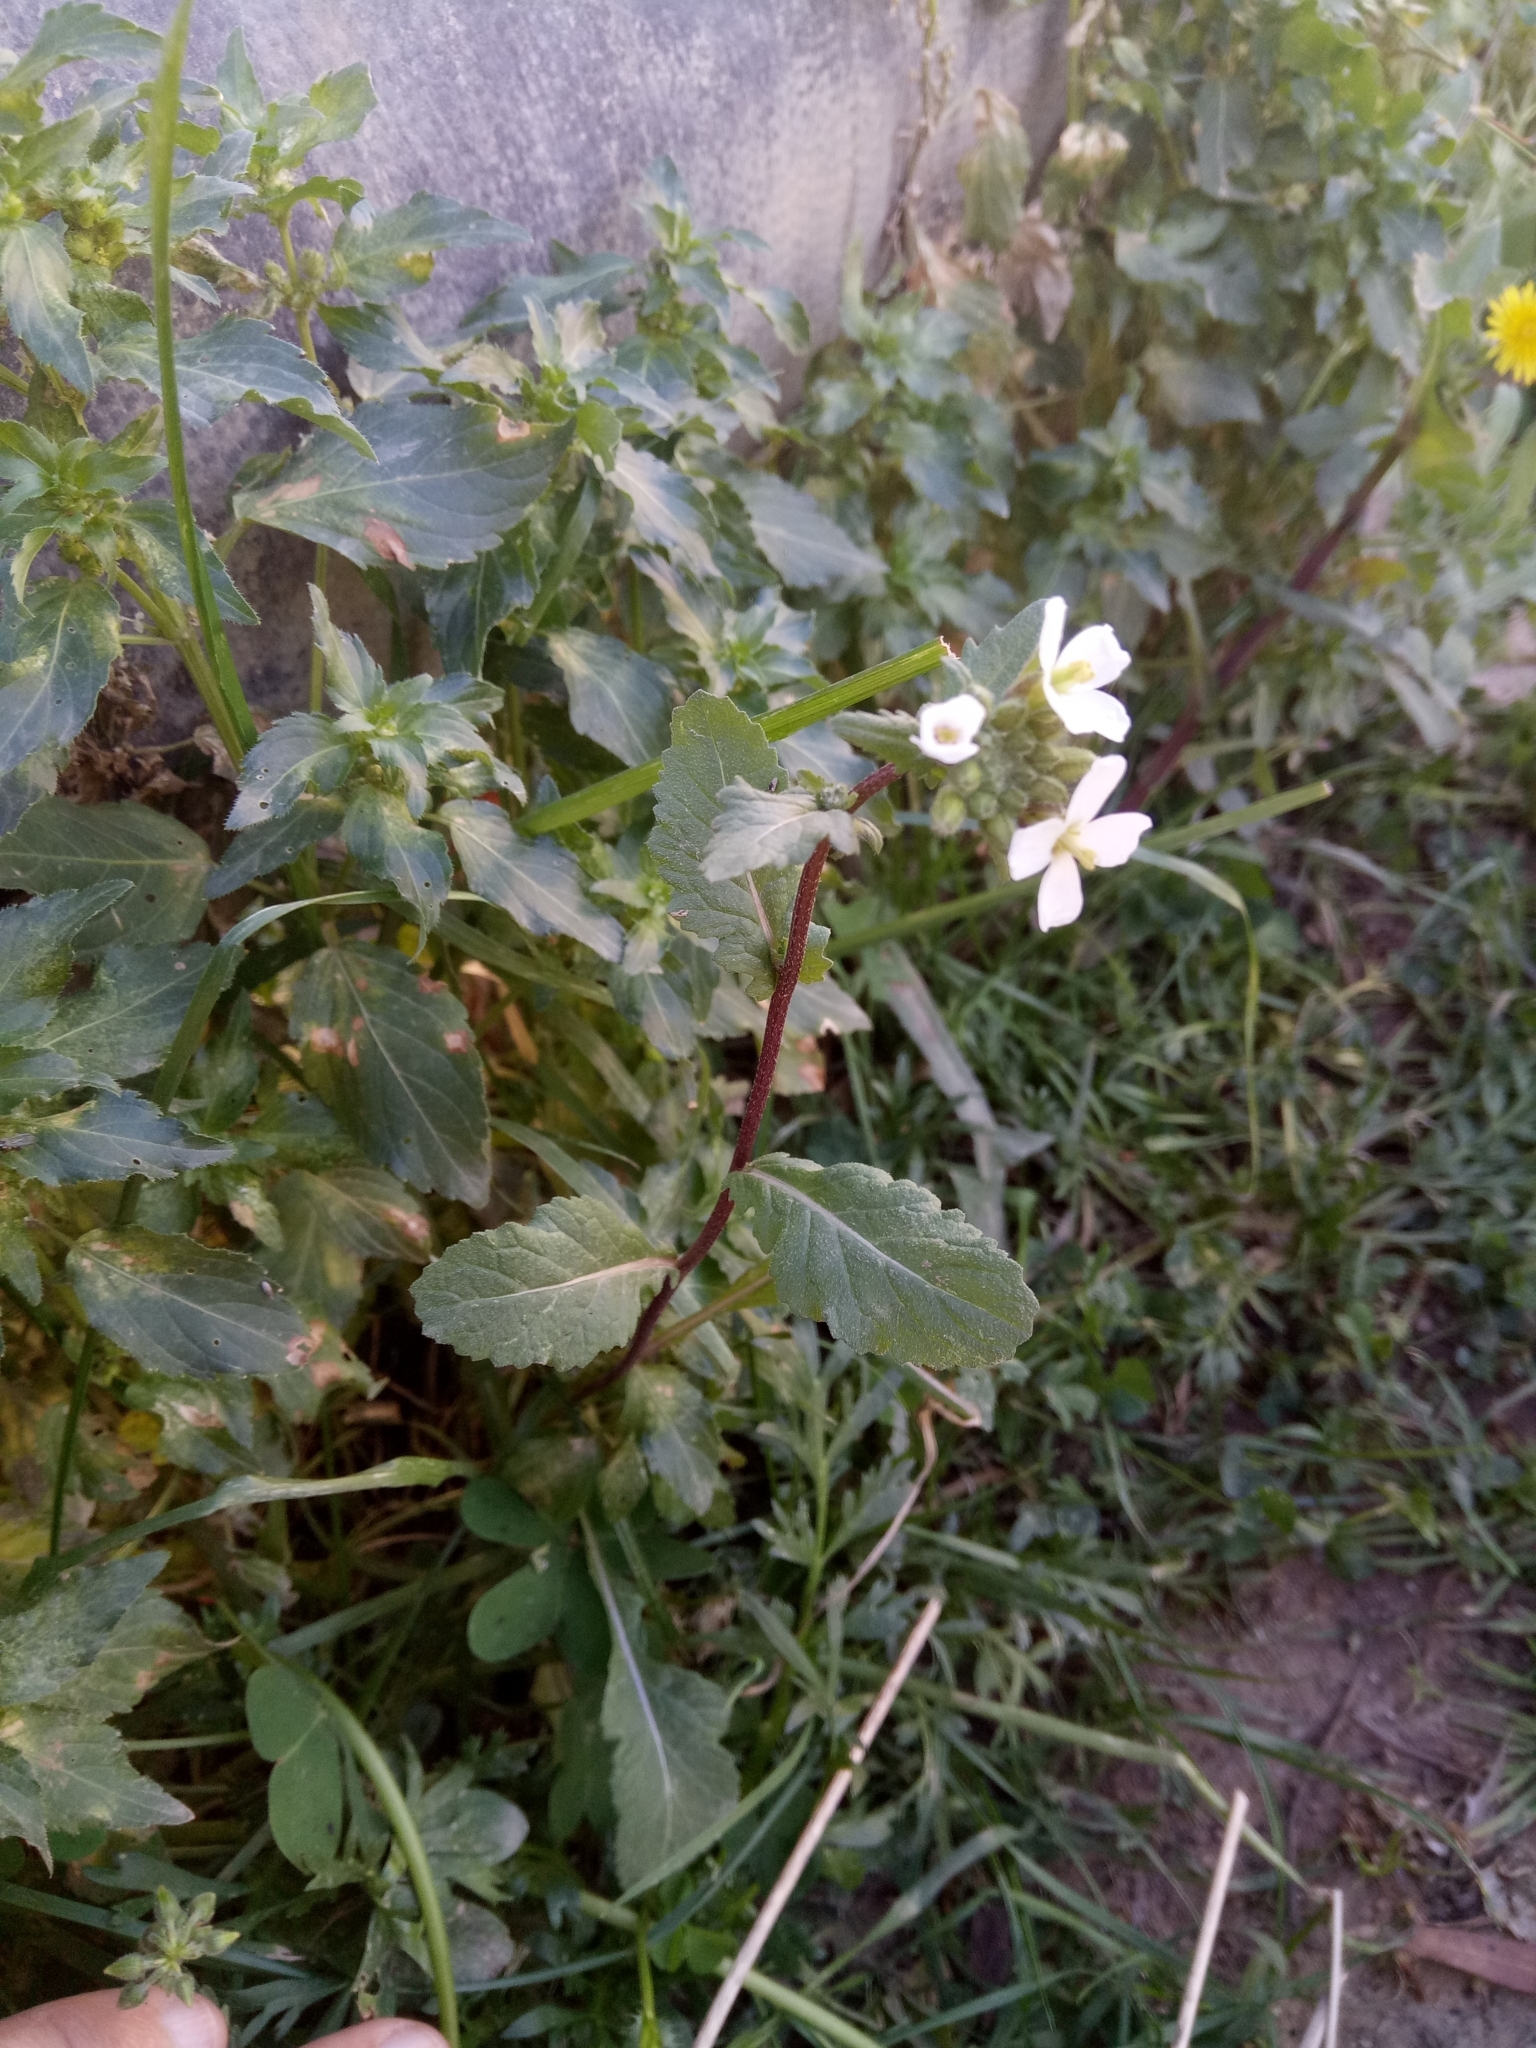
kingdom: Plantae
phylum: Tracheophyta
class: Magnoliopsida
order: Brassicales
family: Brassicaceae
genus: Diplotaxis
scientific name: Diplotaxis erucoides
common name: White rocket
